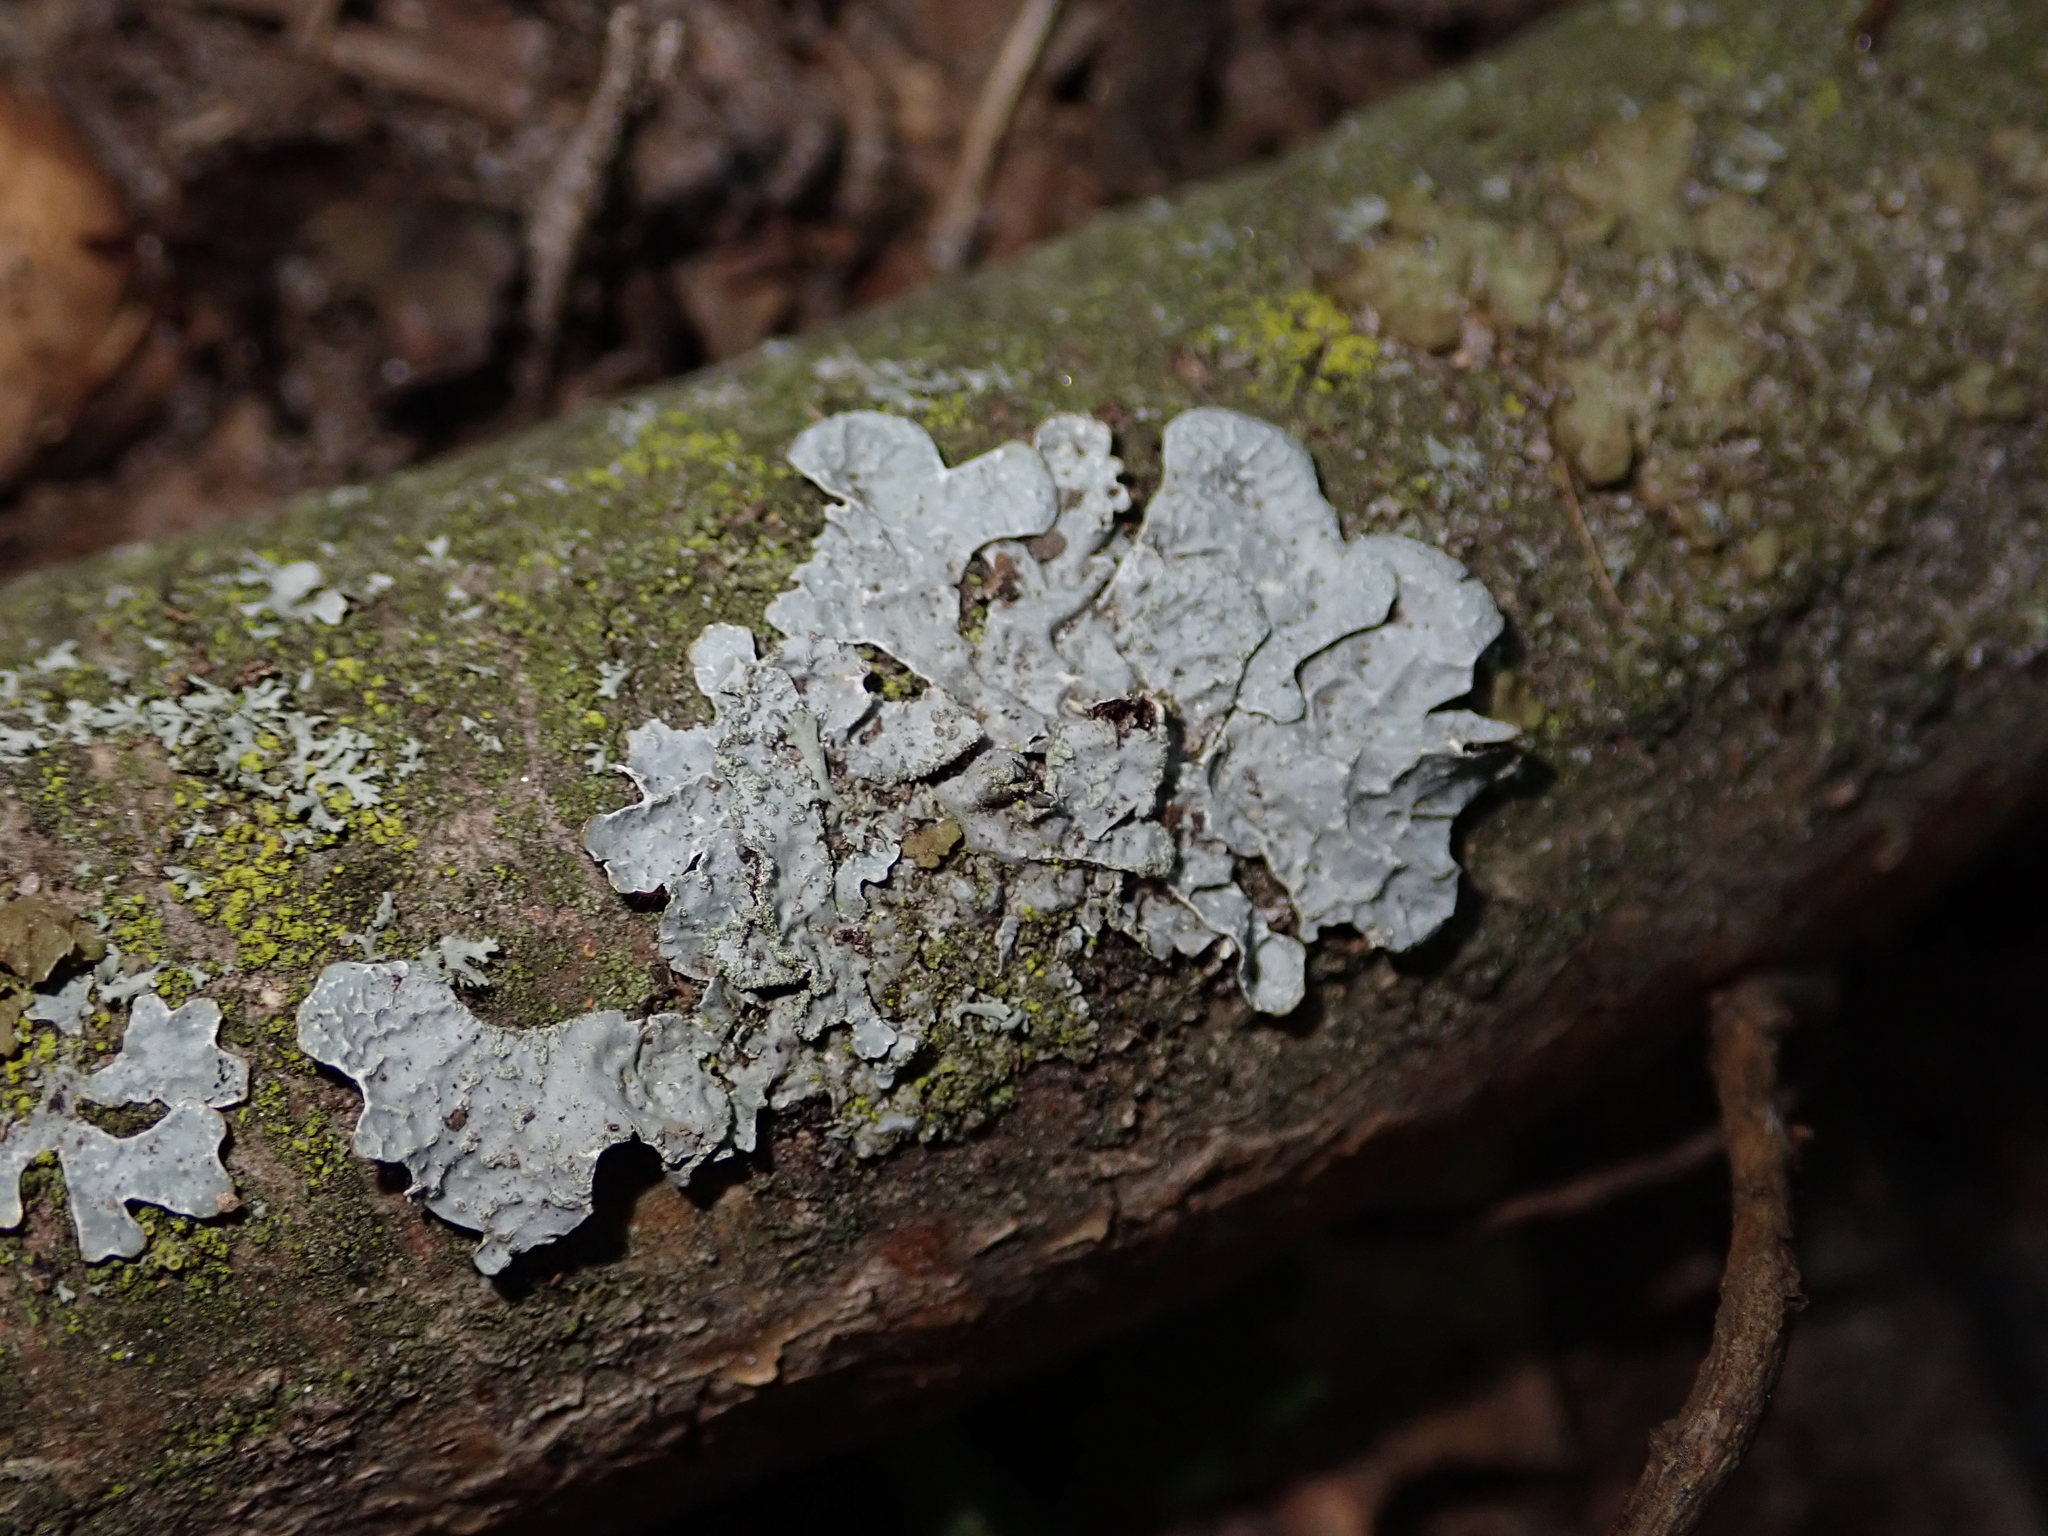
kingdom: Fungi
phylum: Ascomycota
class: Lecanoromycetes
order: Lecanorales
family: Parmeliaceae
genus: Parmelia
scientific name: Parmelia sulcata
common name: Netted shield lichen
